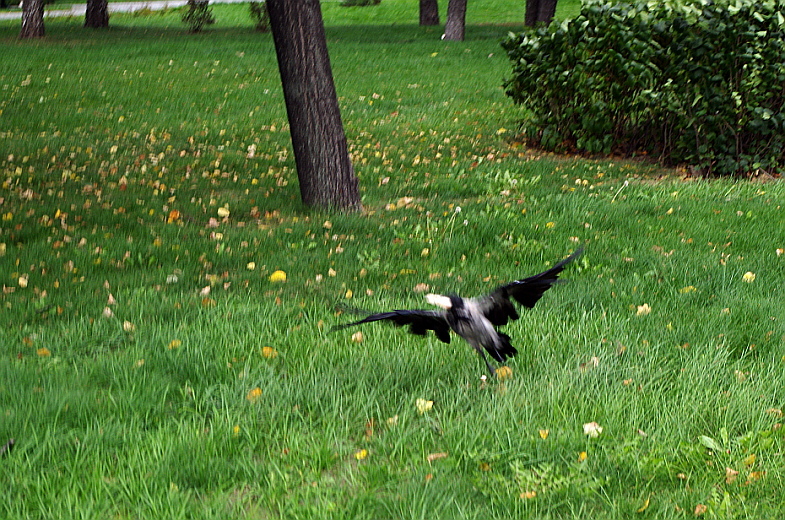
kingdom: Animalia
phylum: Chordata
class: Aves
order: Passeriformes
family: Corvidae
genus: Corvus
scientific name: Corvus cornix
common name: Hooded crow
